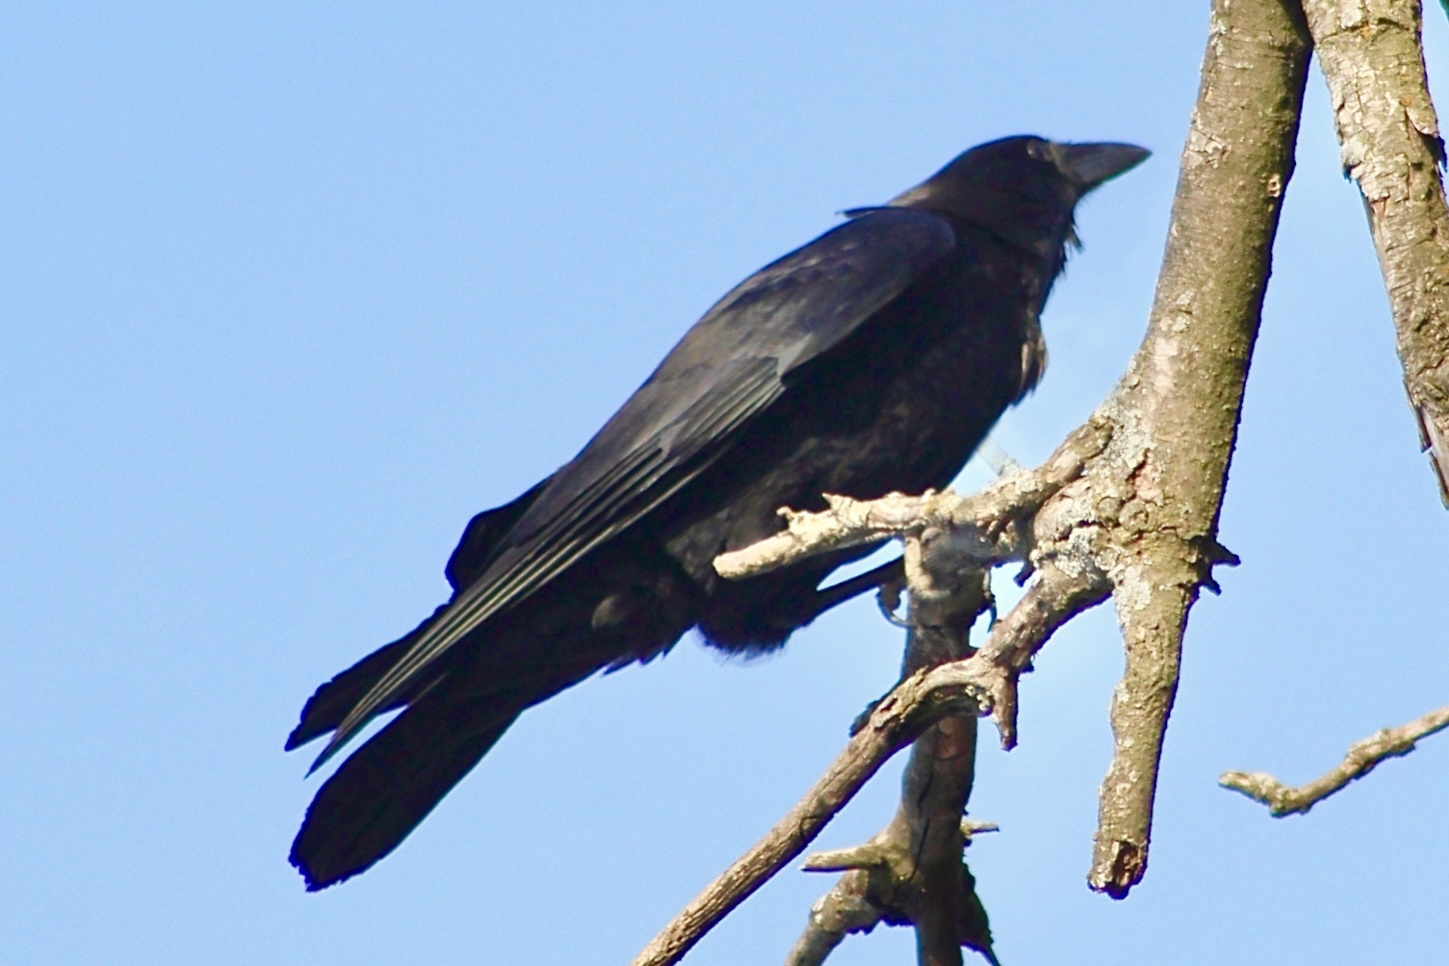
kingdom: Animalia
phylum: Chordata
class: Aves
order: Passeriformes
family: Corvidae
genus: Corvus
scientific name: Corvus brachyrhynchos
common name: American crow
